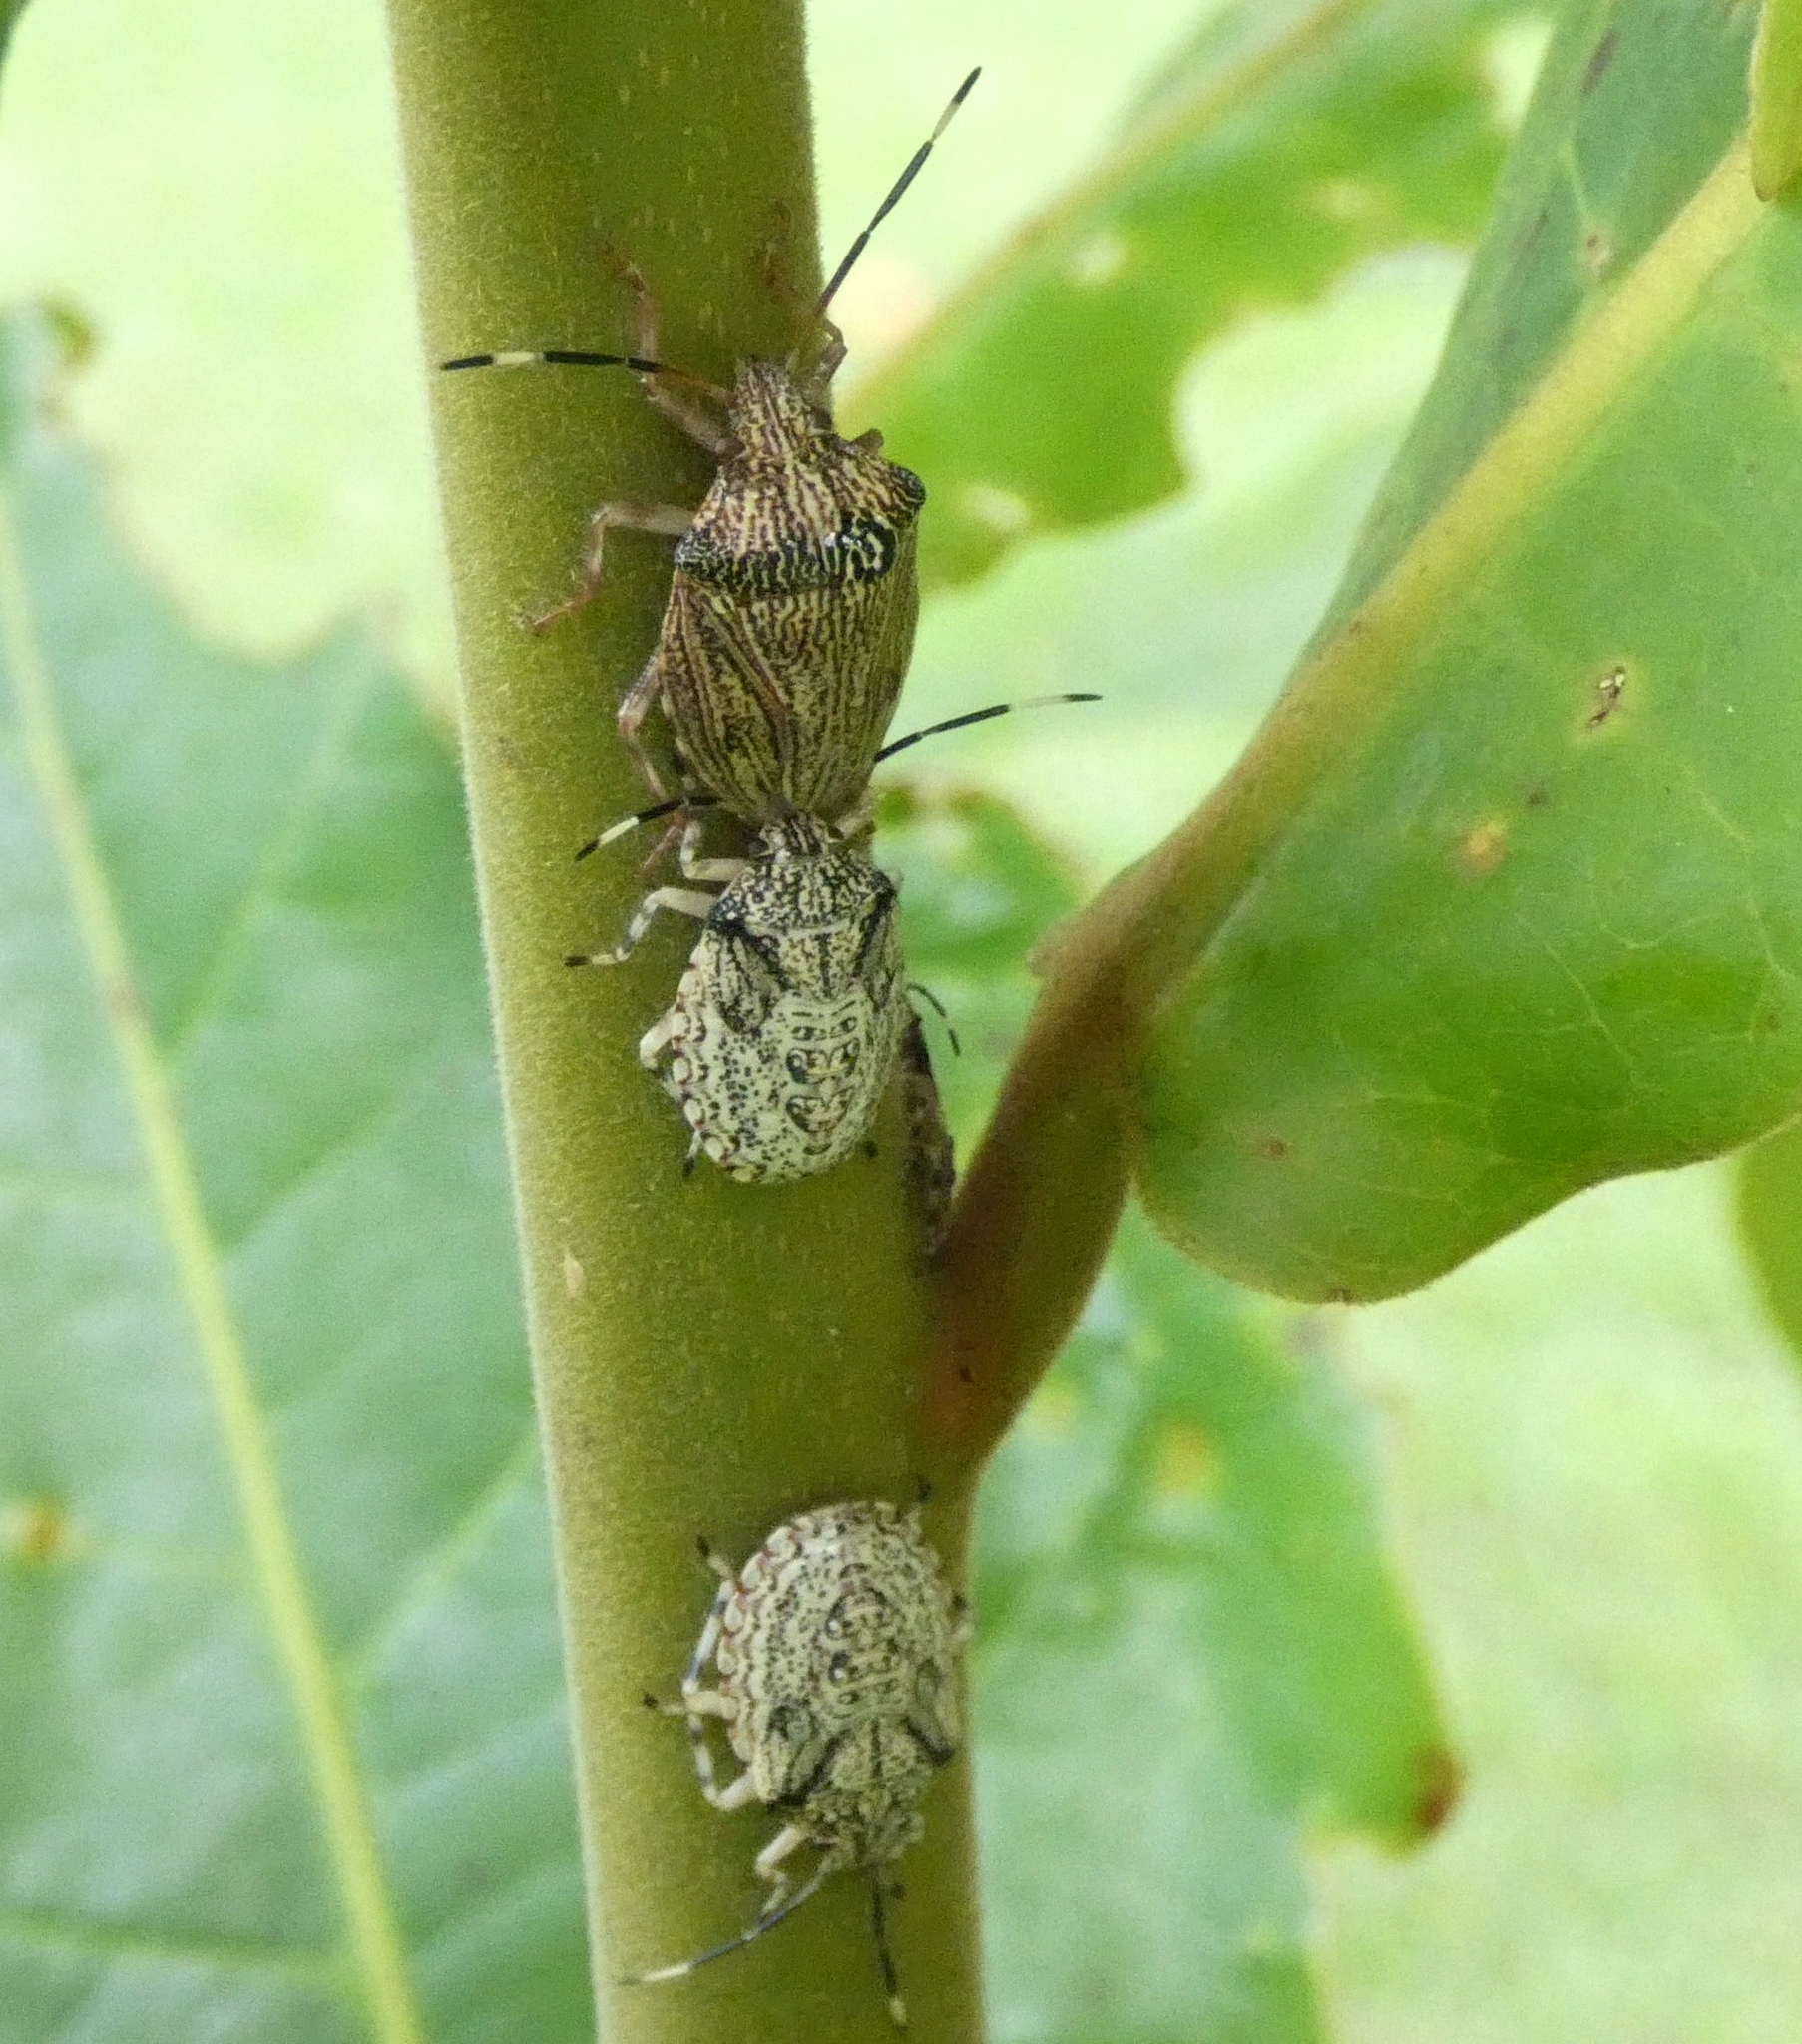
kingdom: Animalia
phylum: Arthropoda
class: Insecta
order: Hemiptera
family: Pentatomidae
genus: Antiteuchus
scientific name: Antiteuchus macraspis
